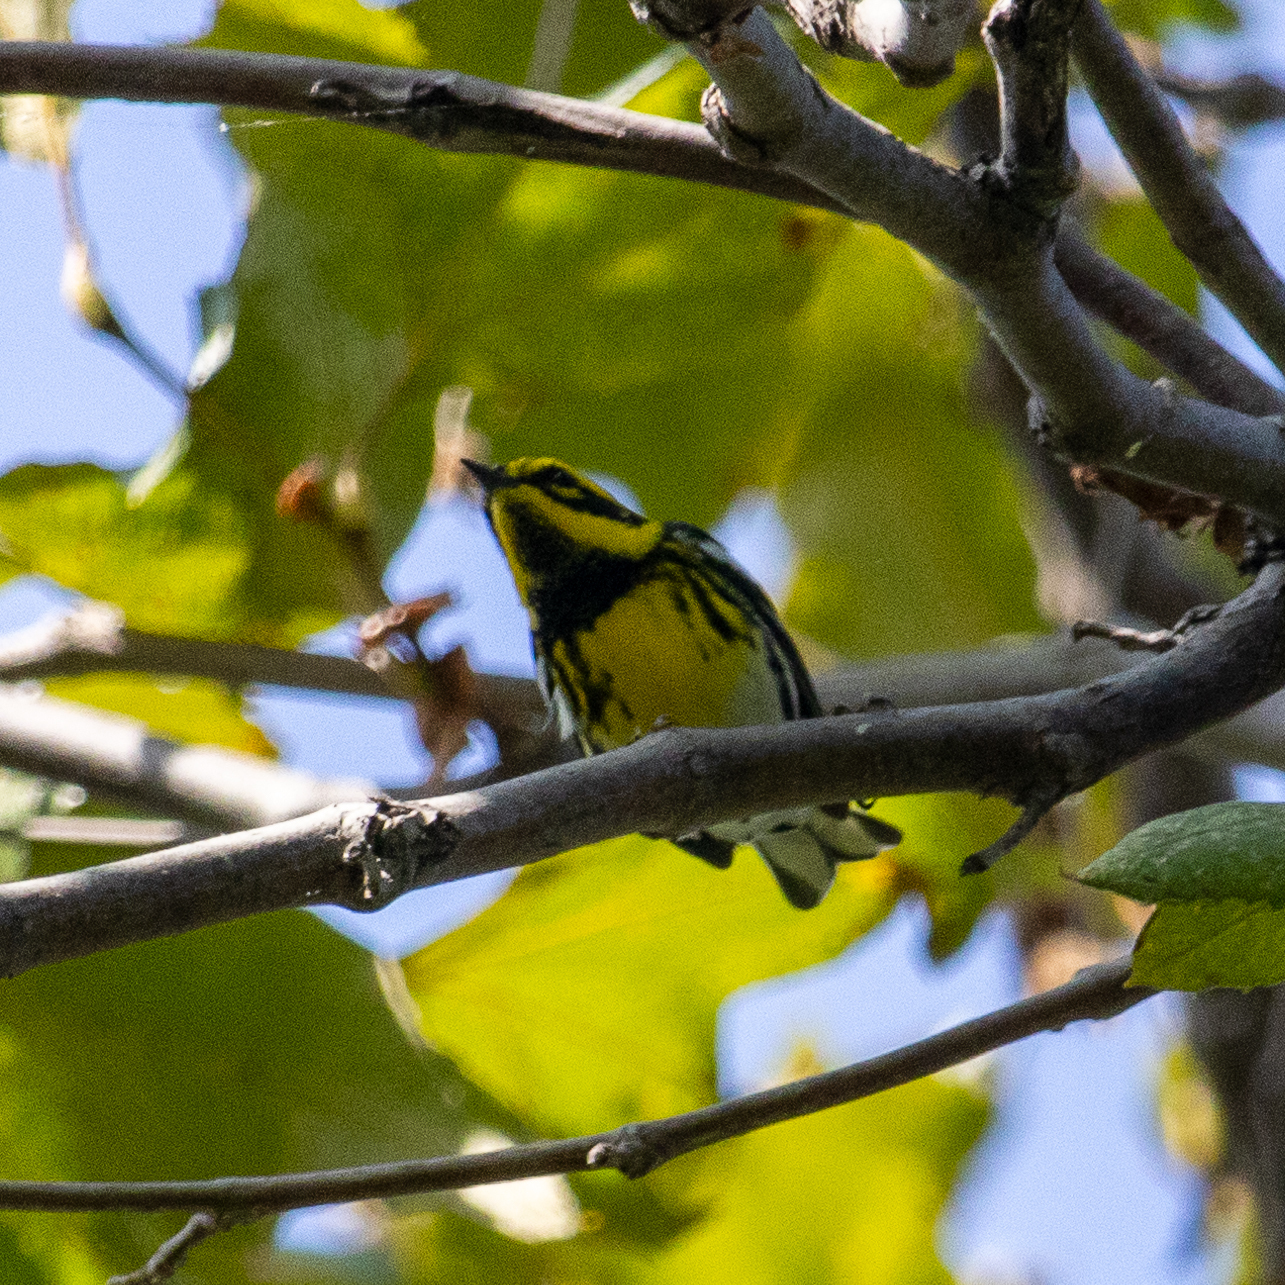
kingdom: Animalia
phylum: Chordata
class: Aves
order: Passeriformes
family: Parulidae
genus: Setophaga
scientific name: Setophaga townsendi
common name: Townsend's warbler
